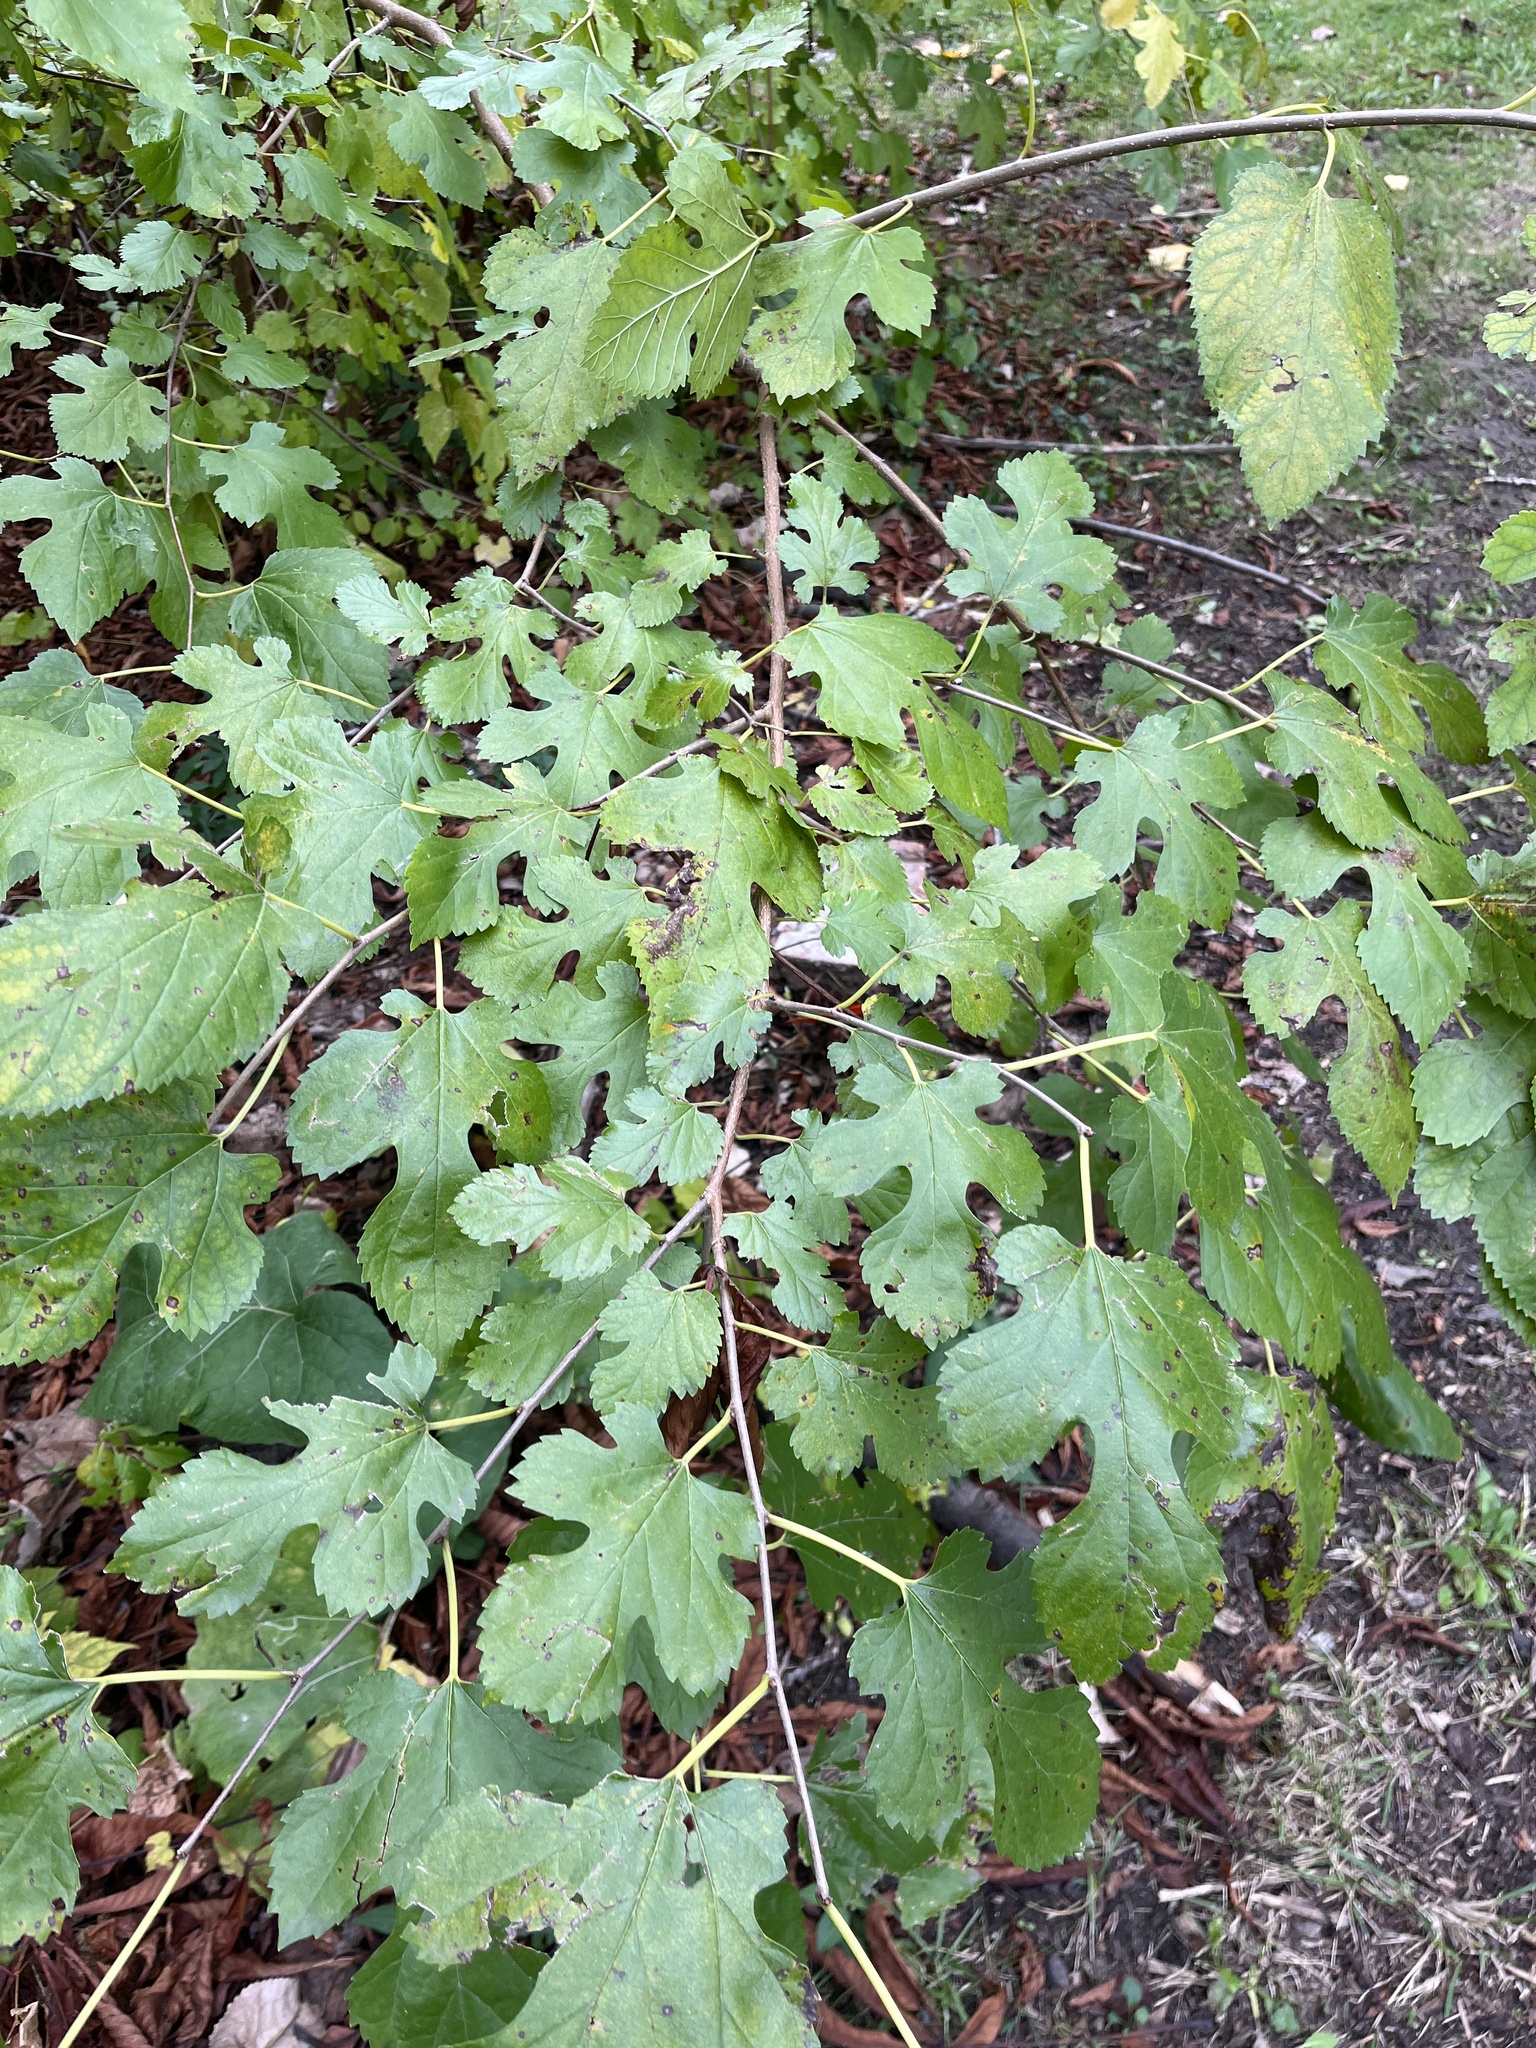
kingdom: Plantae
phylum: Tracheophyta
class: Magnoliopsida
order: Rosales
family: Moraceae
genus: Morus
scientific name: Morus alba
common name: White mulberry
